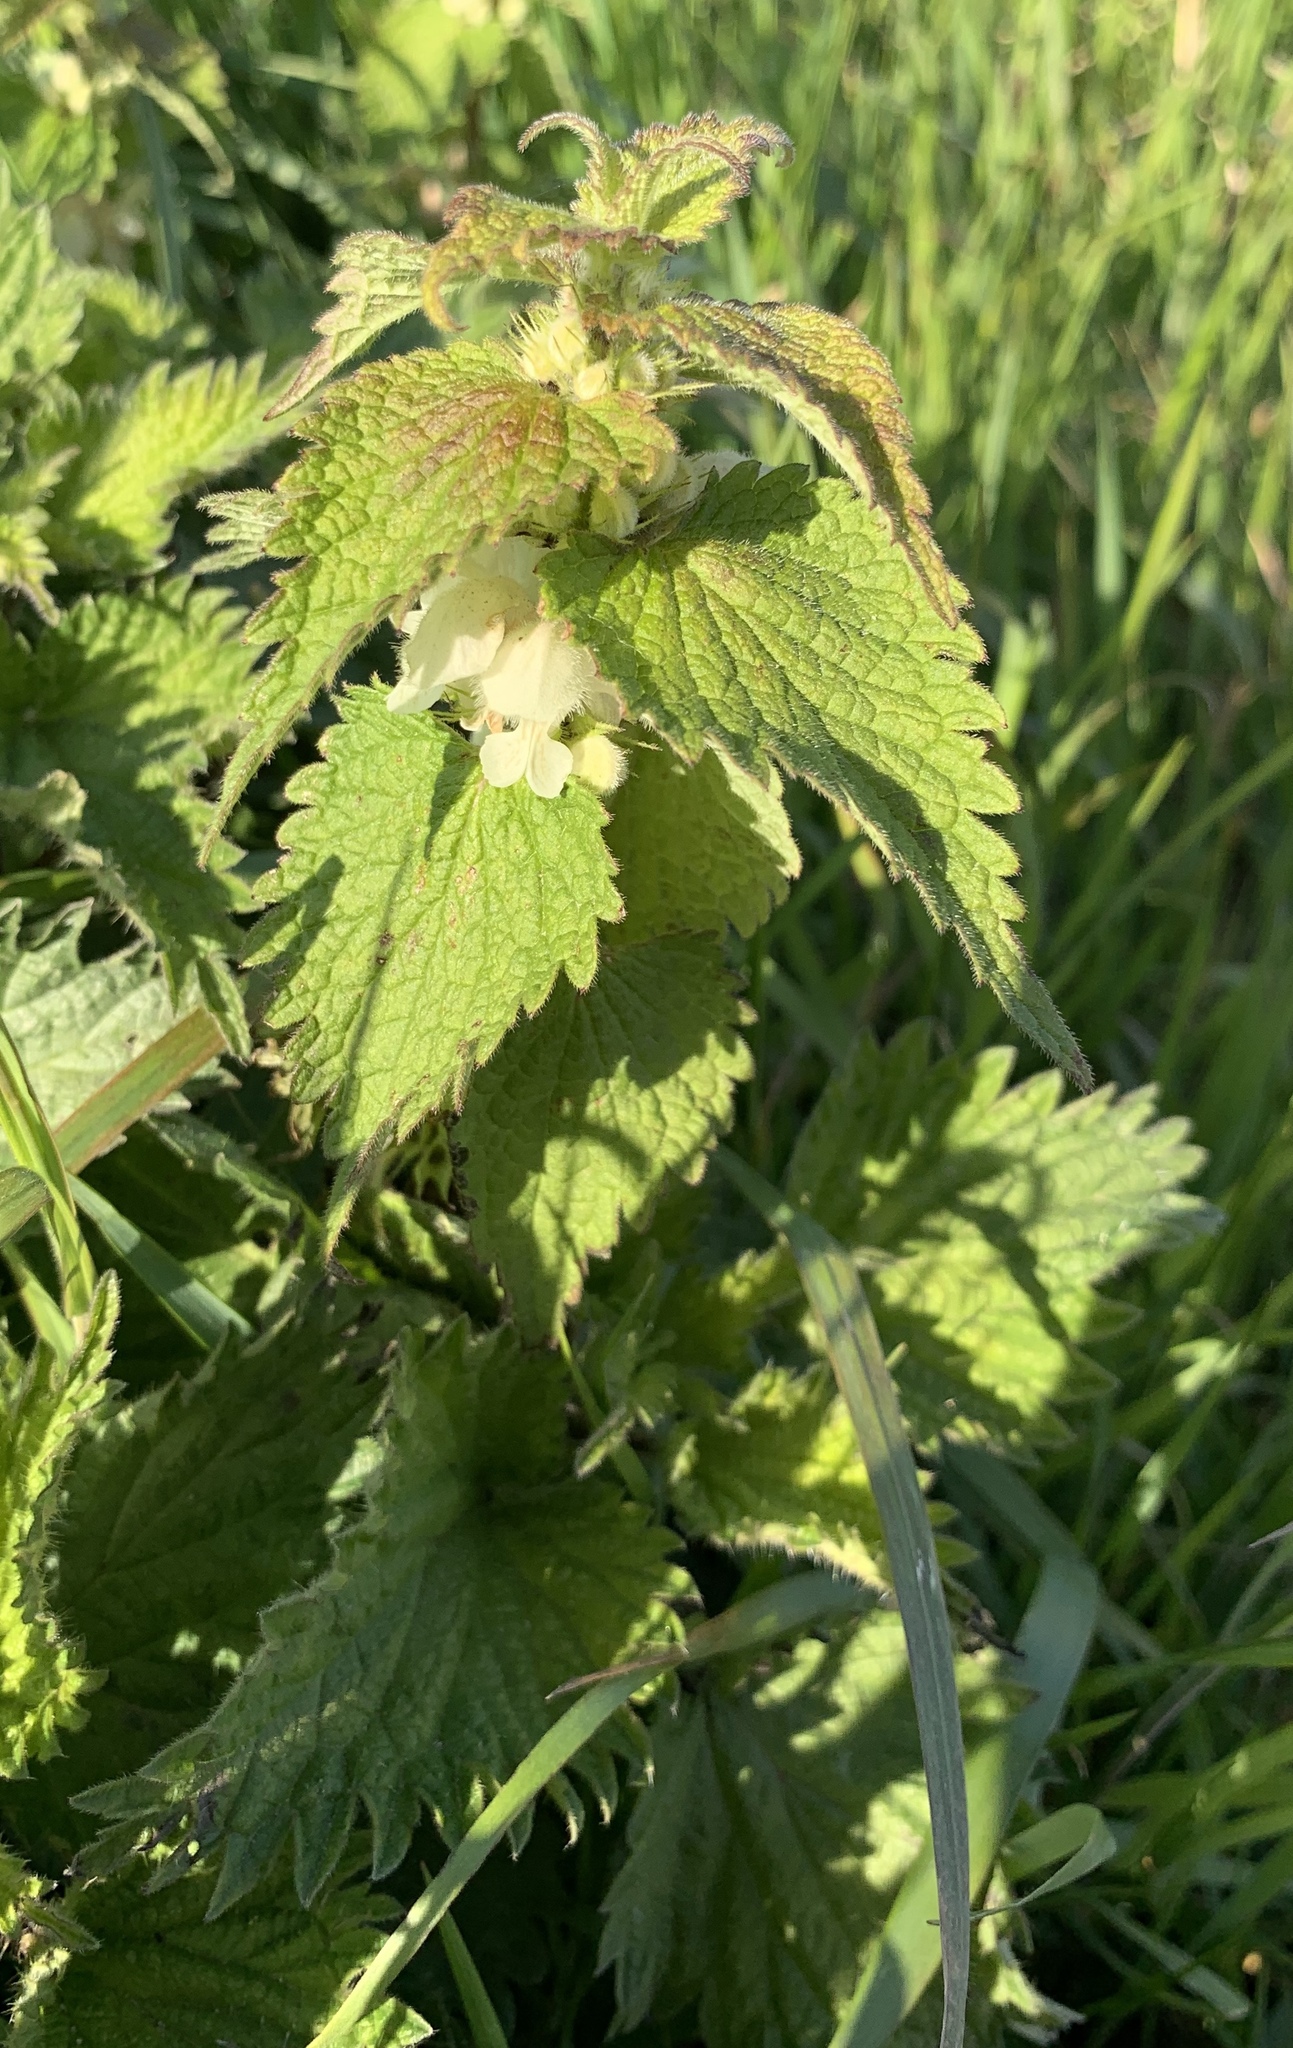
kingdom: Plantae
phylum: Tracheophyta
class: Magnoliopsida
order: Lamiales
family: Lamiaceae
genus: Lamium
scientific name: Lamium album
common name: White dead-nettle
